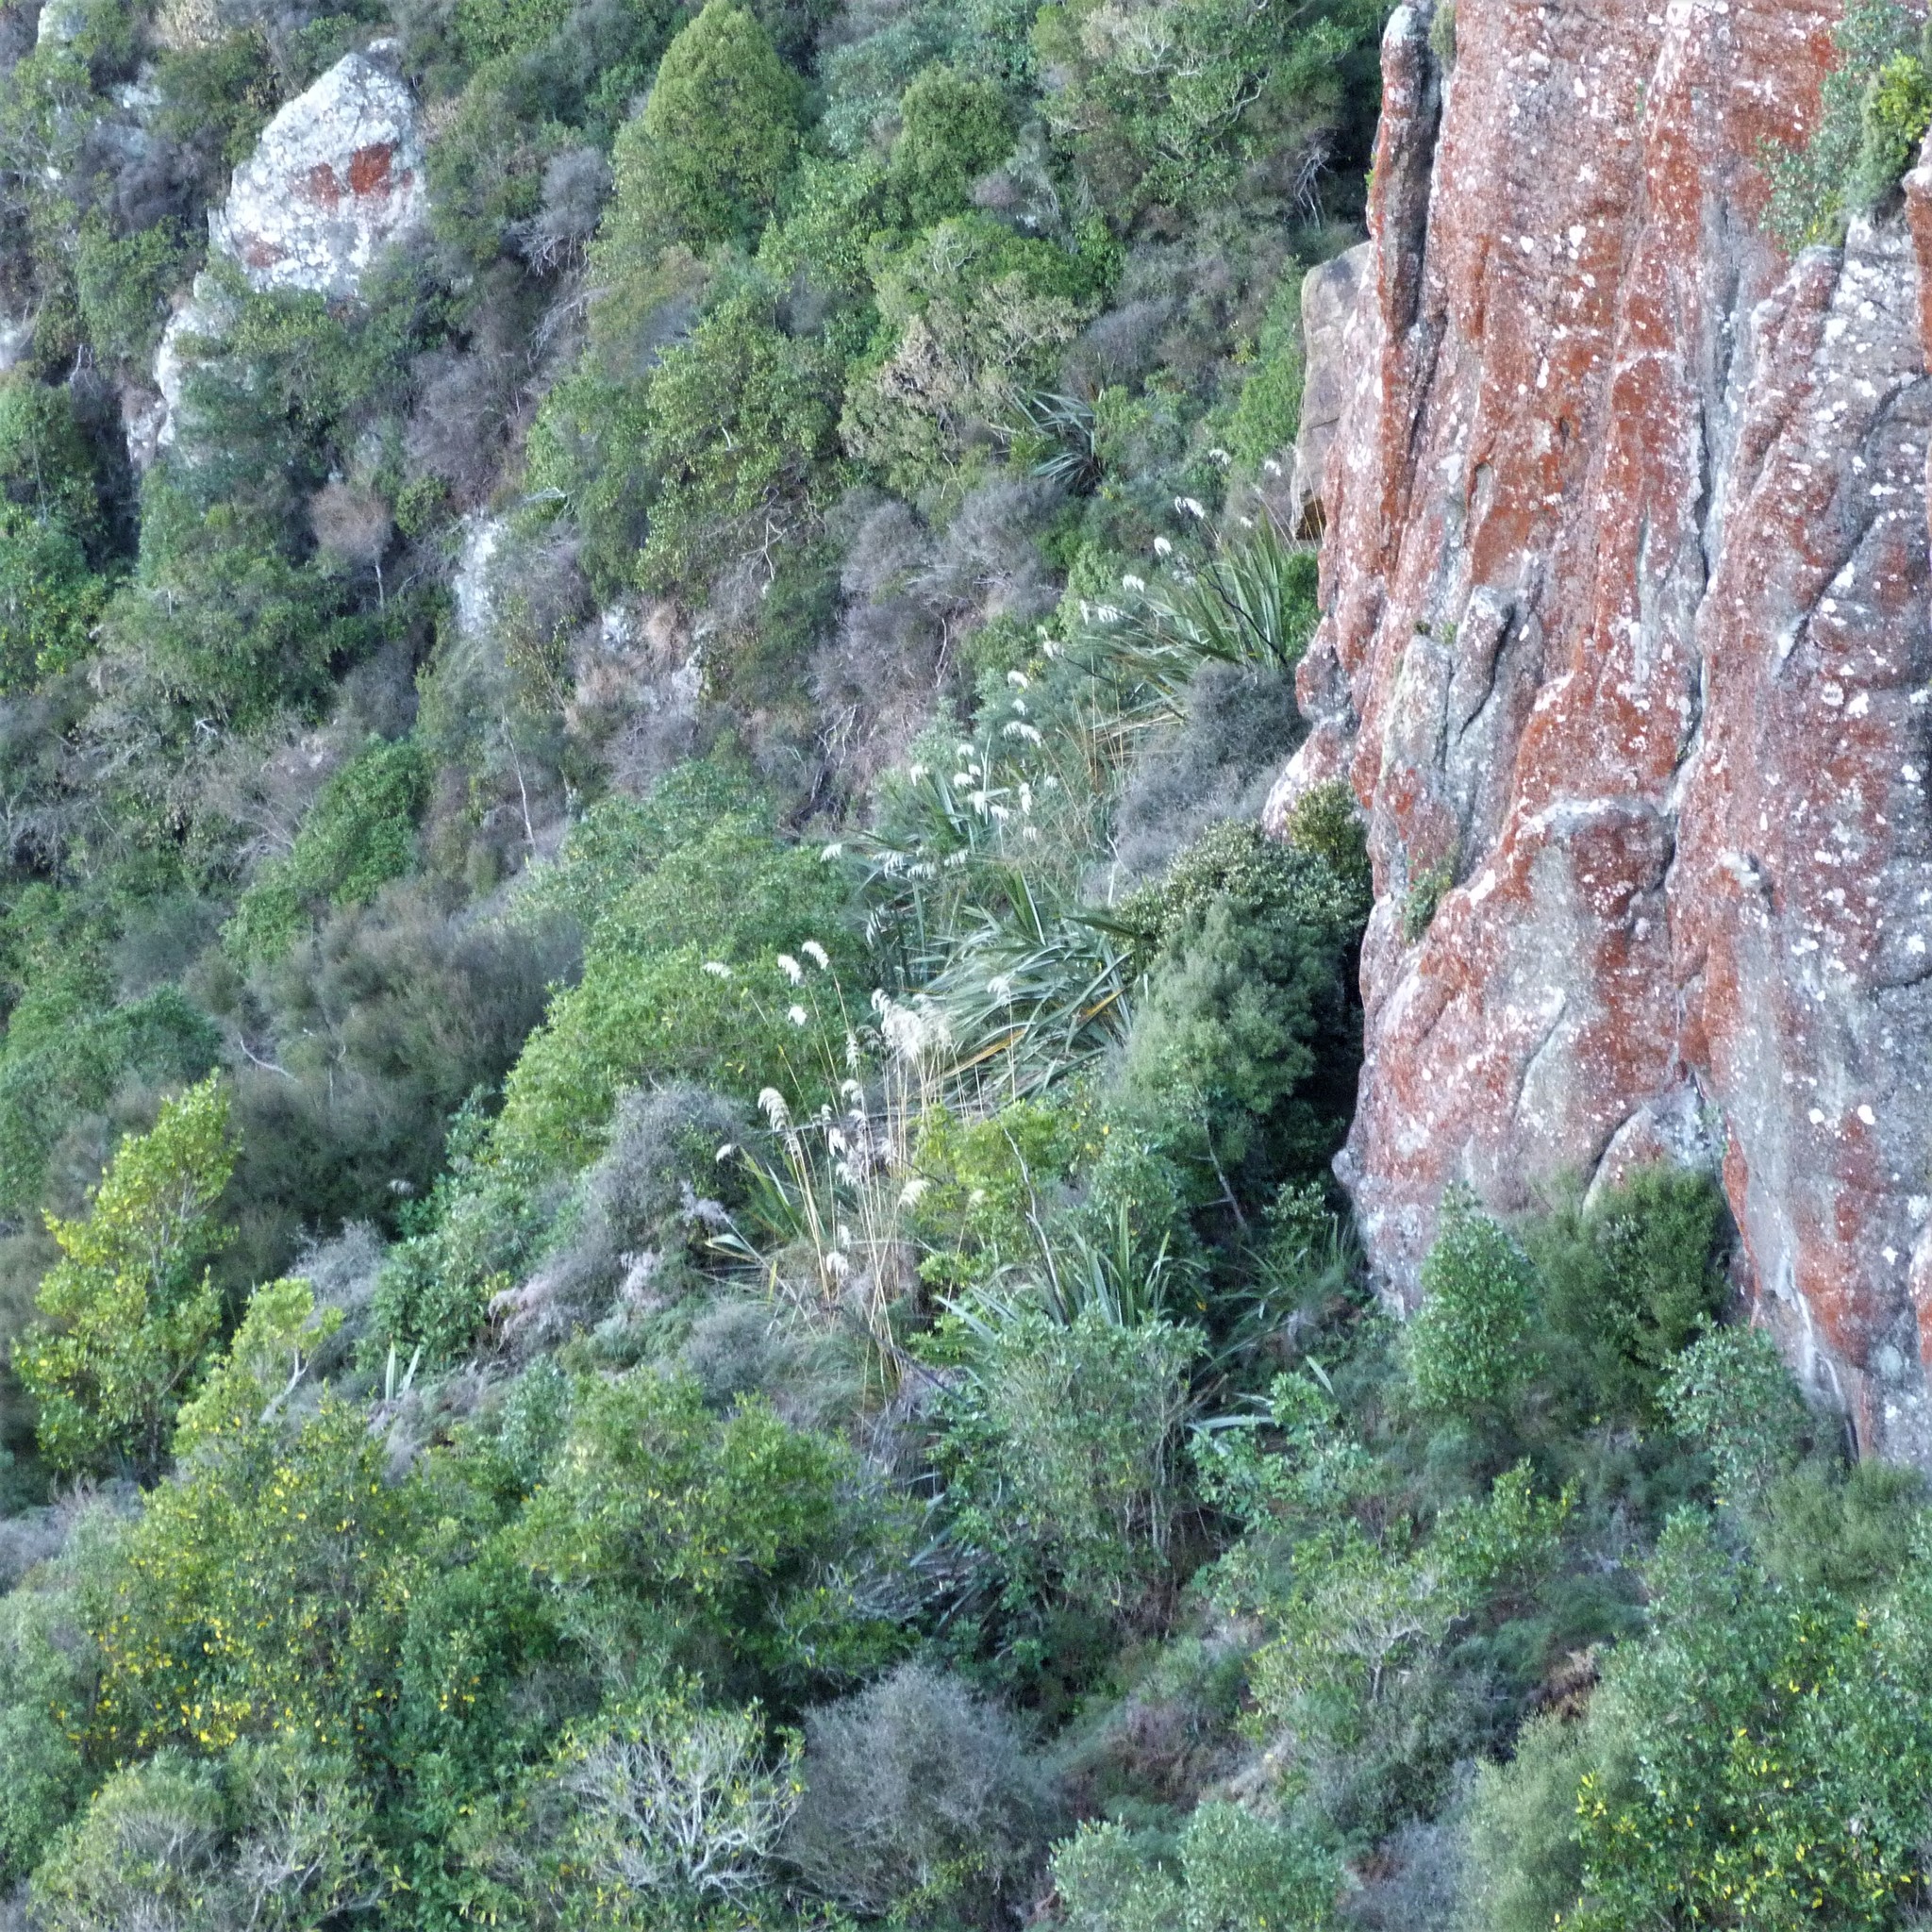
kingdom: Plantae
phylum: Tracheophyta
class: Liliopsida
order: Poales
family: Poaceae
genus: Austroderia
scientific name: Austroderia richardii
